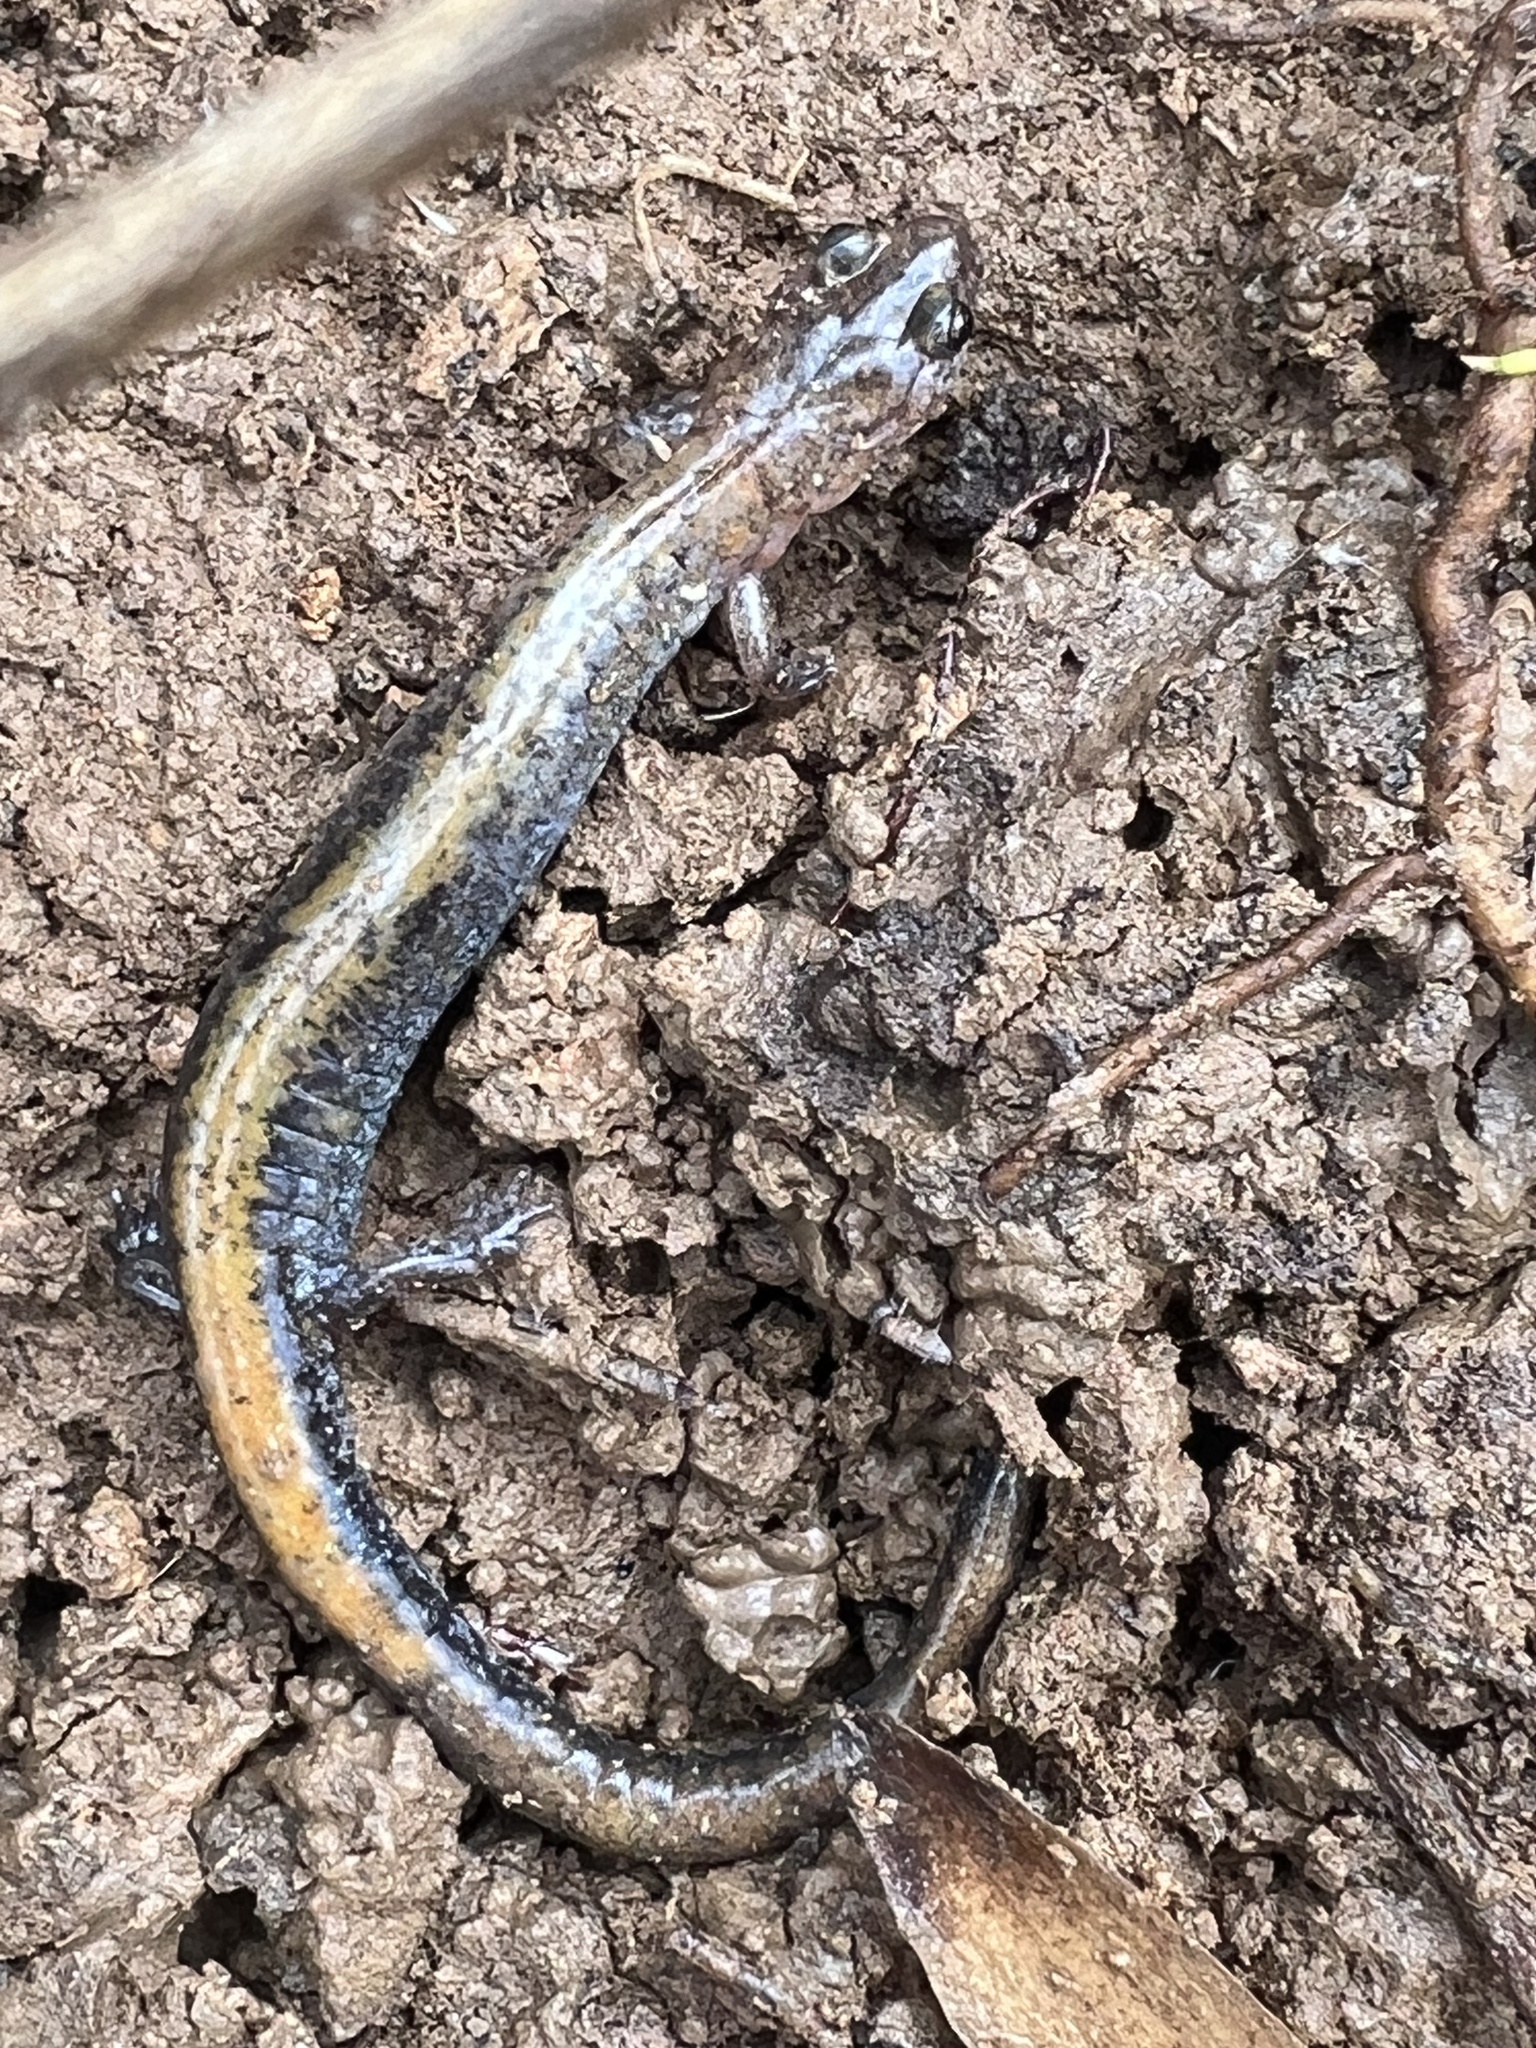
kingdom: Animalia
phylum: Chordata
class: Amphibia
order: Caudata
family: Plethodontidae
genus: Plethodon
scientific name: Plethodon cinereus
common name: Redback salamander
